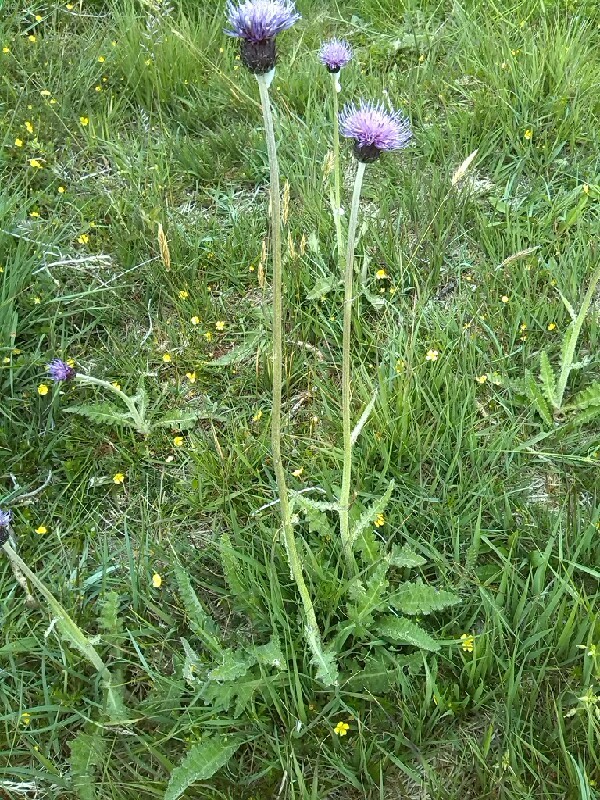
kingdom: Plantae
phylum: Tracheophyta
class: Magnoliopsida
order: Asterales
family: Asteraceae
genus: Cirsium
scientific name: Cirsium dissectum
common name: Meadow thistle
